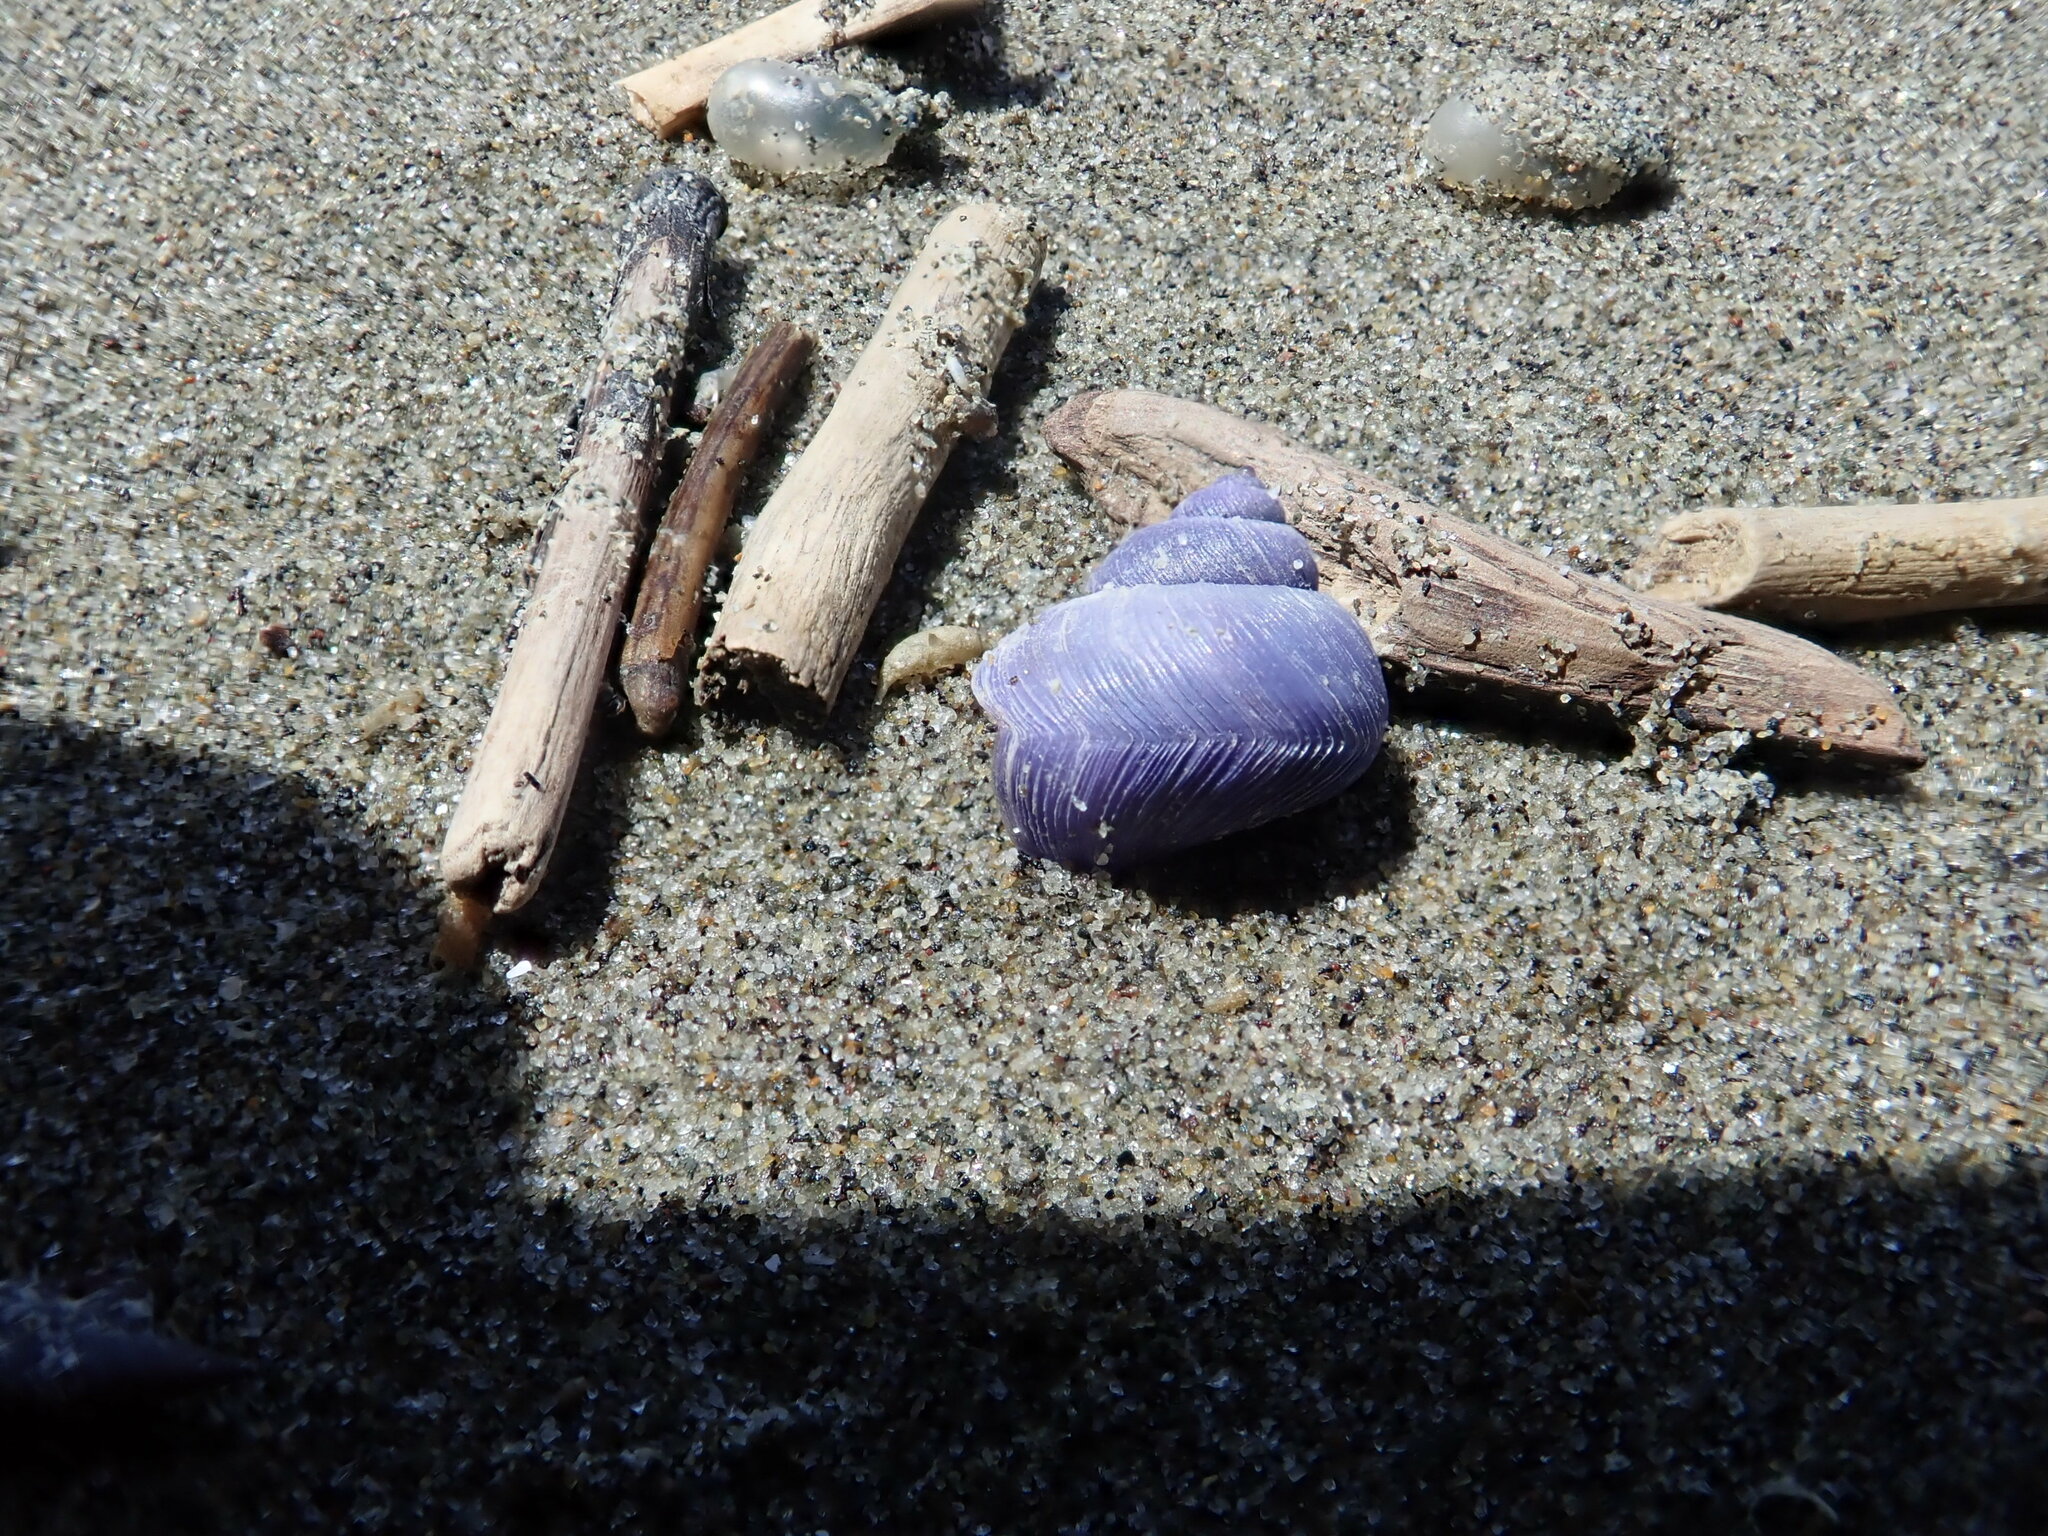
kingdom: Animalia
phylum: Mollusca
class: Gastropoda
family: Epitoniidae
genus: Janthina
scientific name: Janthina exigua
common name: Dwarf janthina
